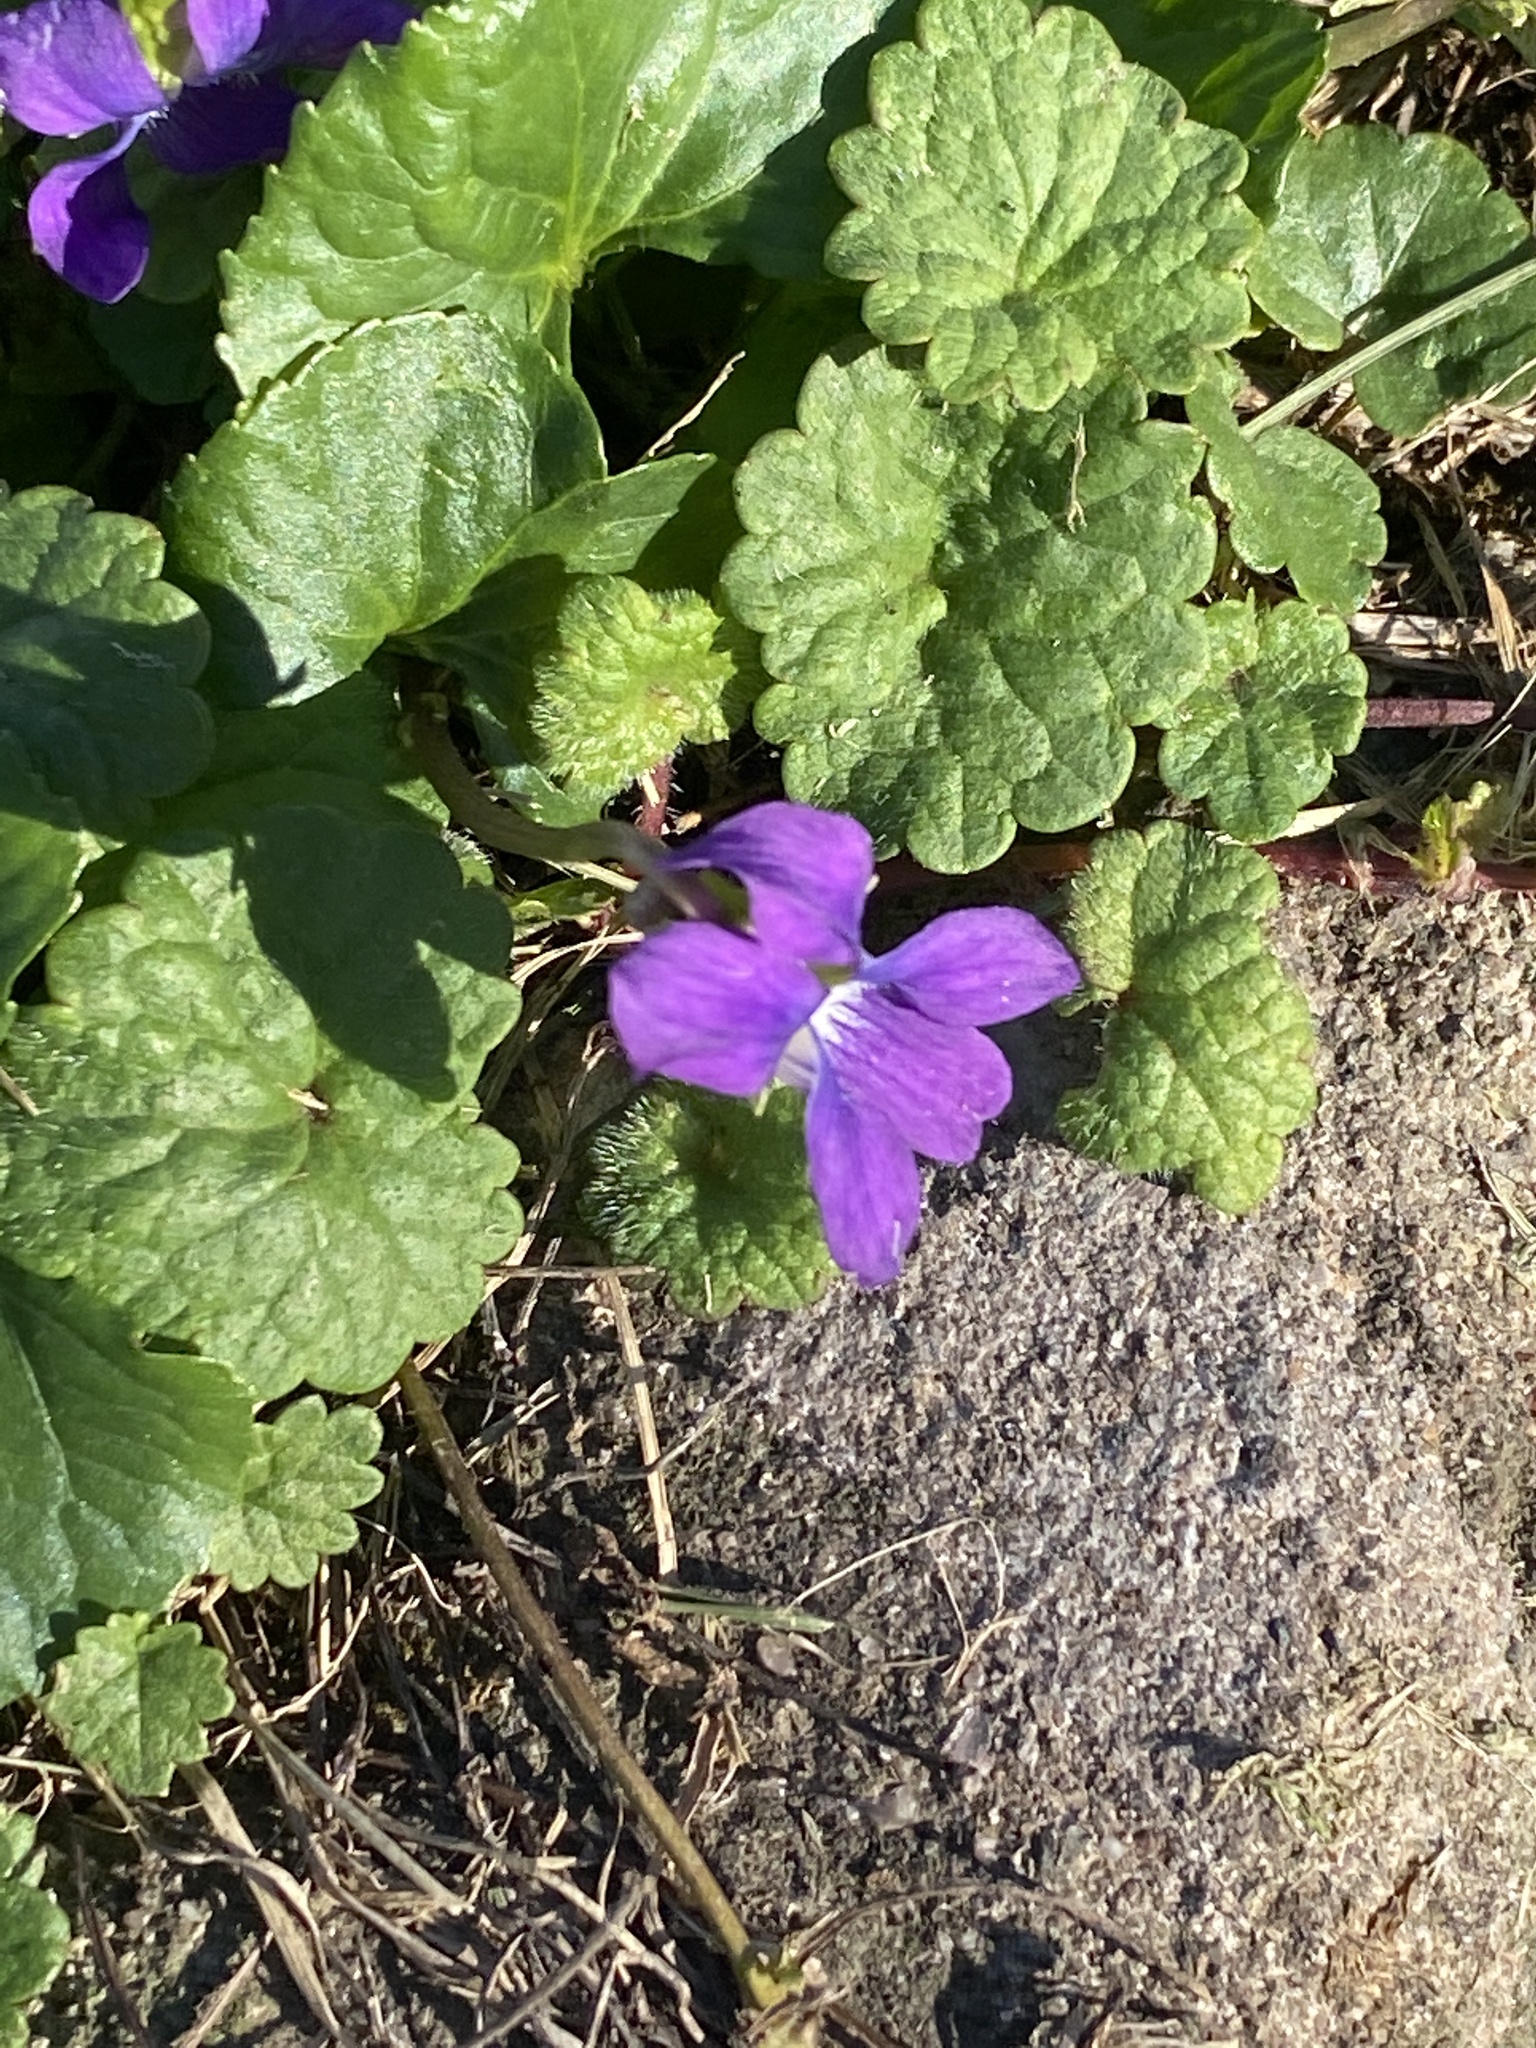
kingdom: Plantae
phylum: Tracheophyta
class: Magnoliopsida
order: Malpighiales
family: Violaceae
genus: Viola
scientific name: Viola sororia
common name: Dooryard violet
